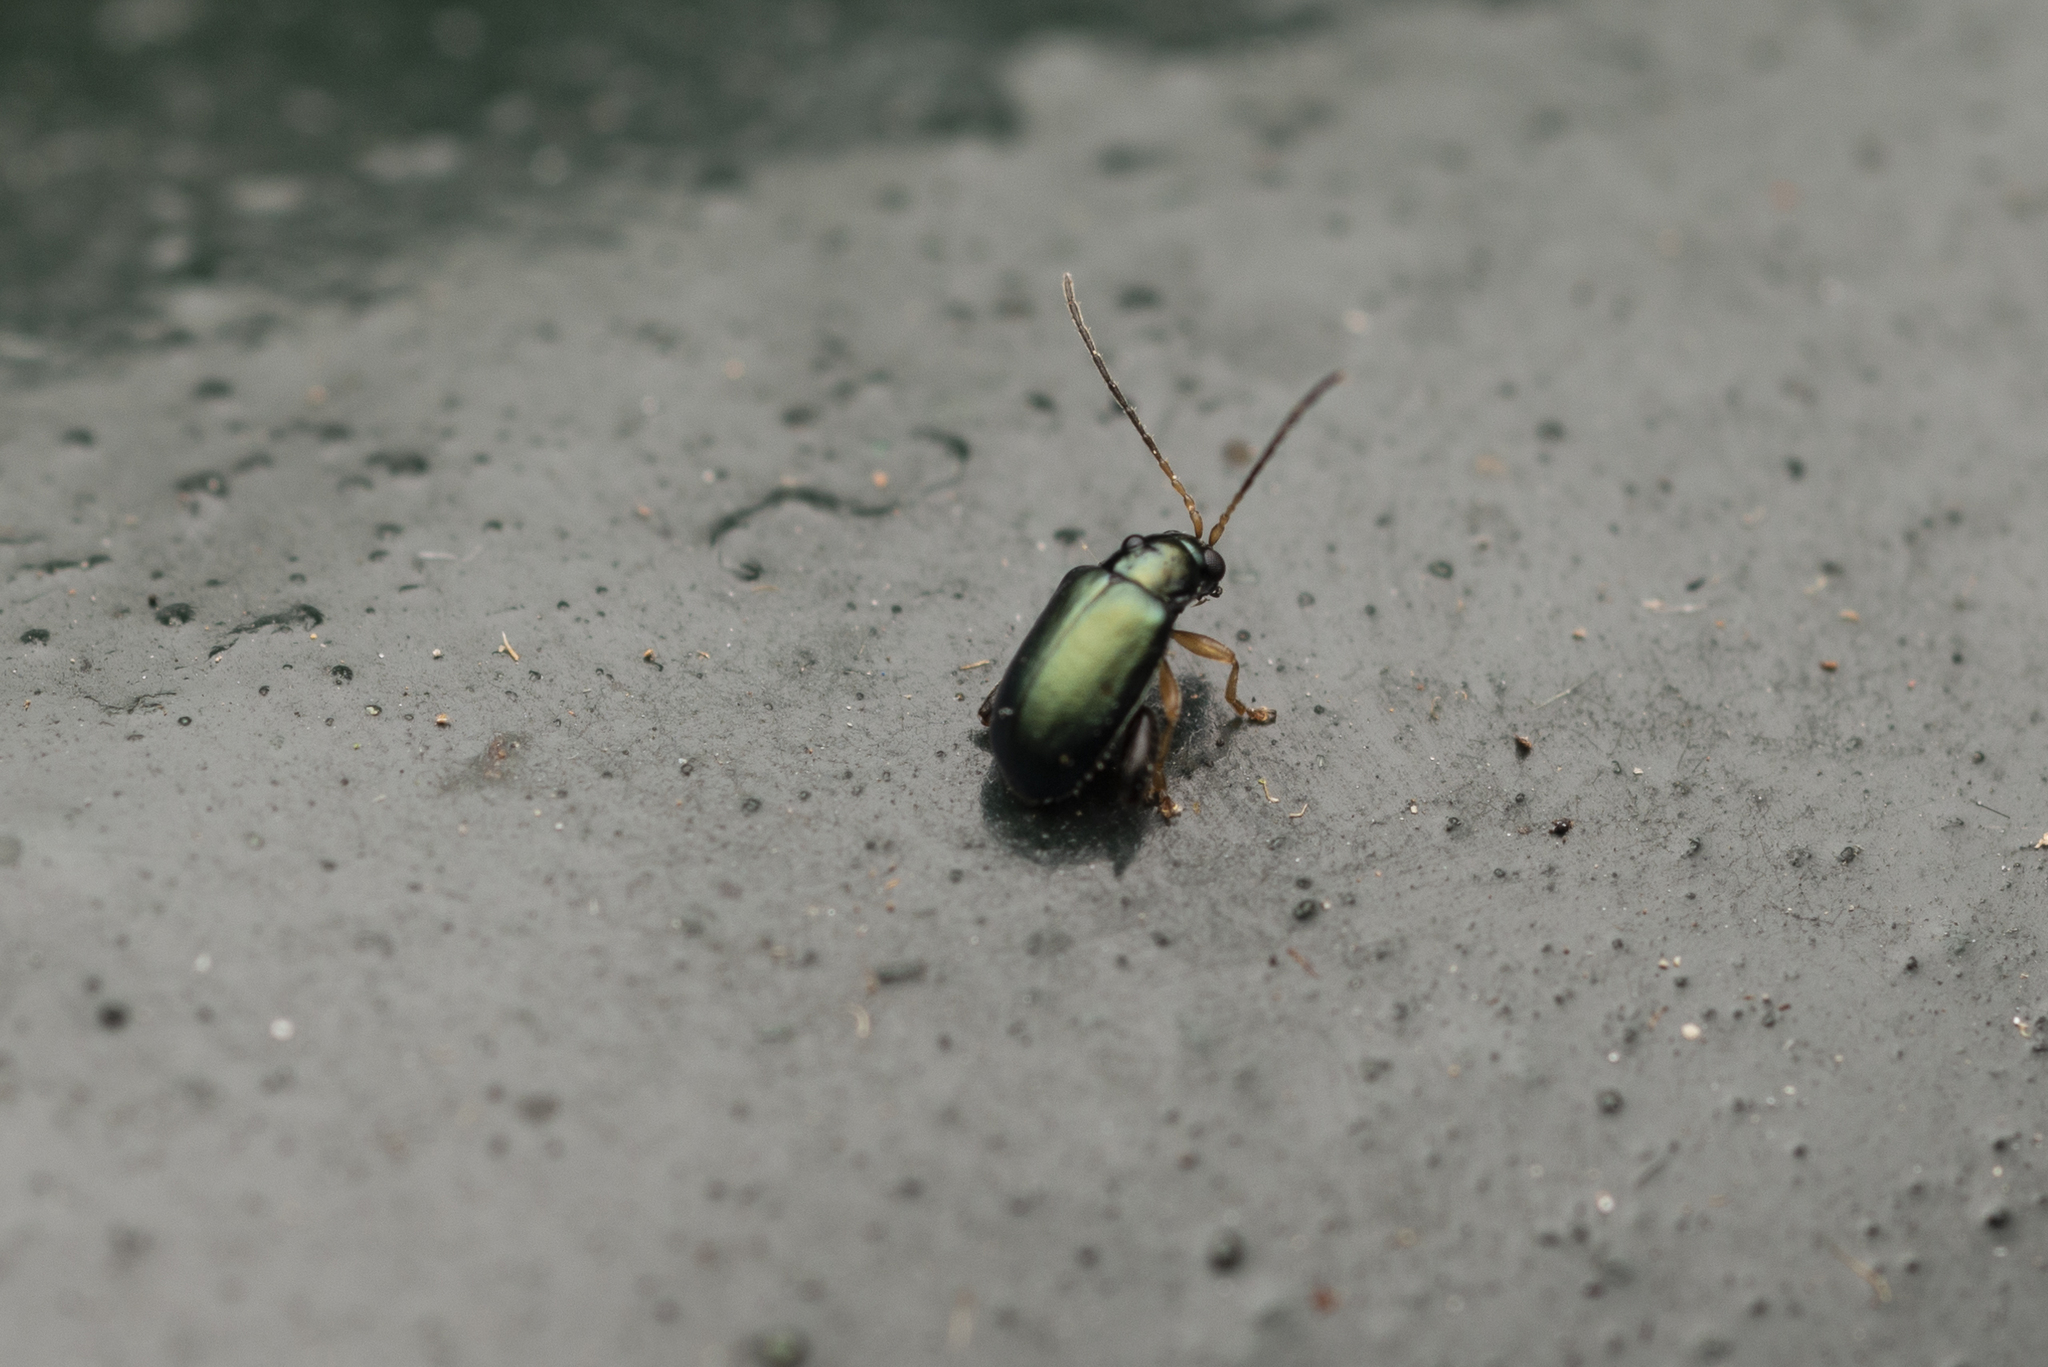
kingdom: Animalia
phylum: Arthropoda
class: Insecta
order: Coleoptera
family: Chrysomelidae
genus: Aphthona
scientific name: Aphthona strigosa
